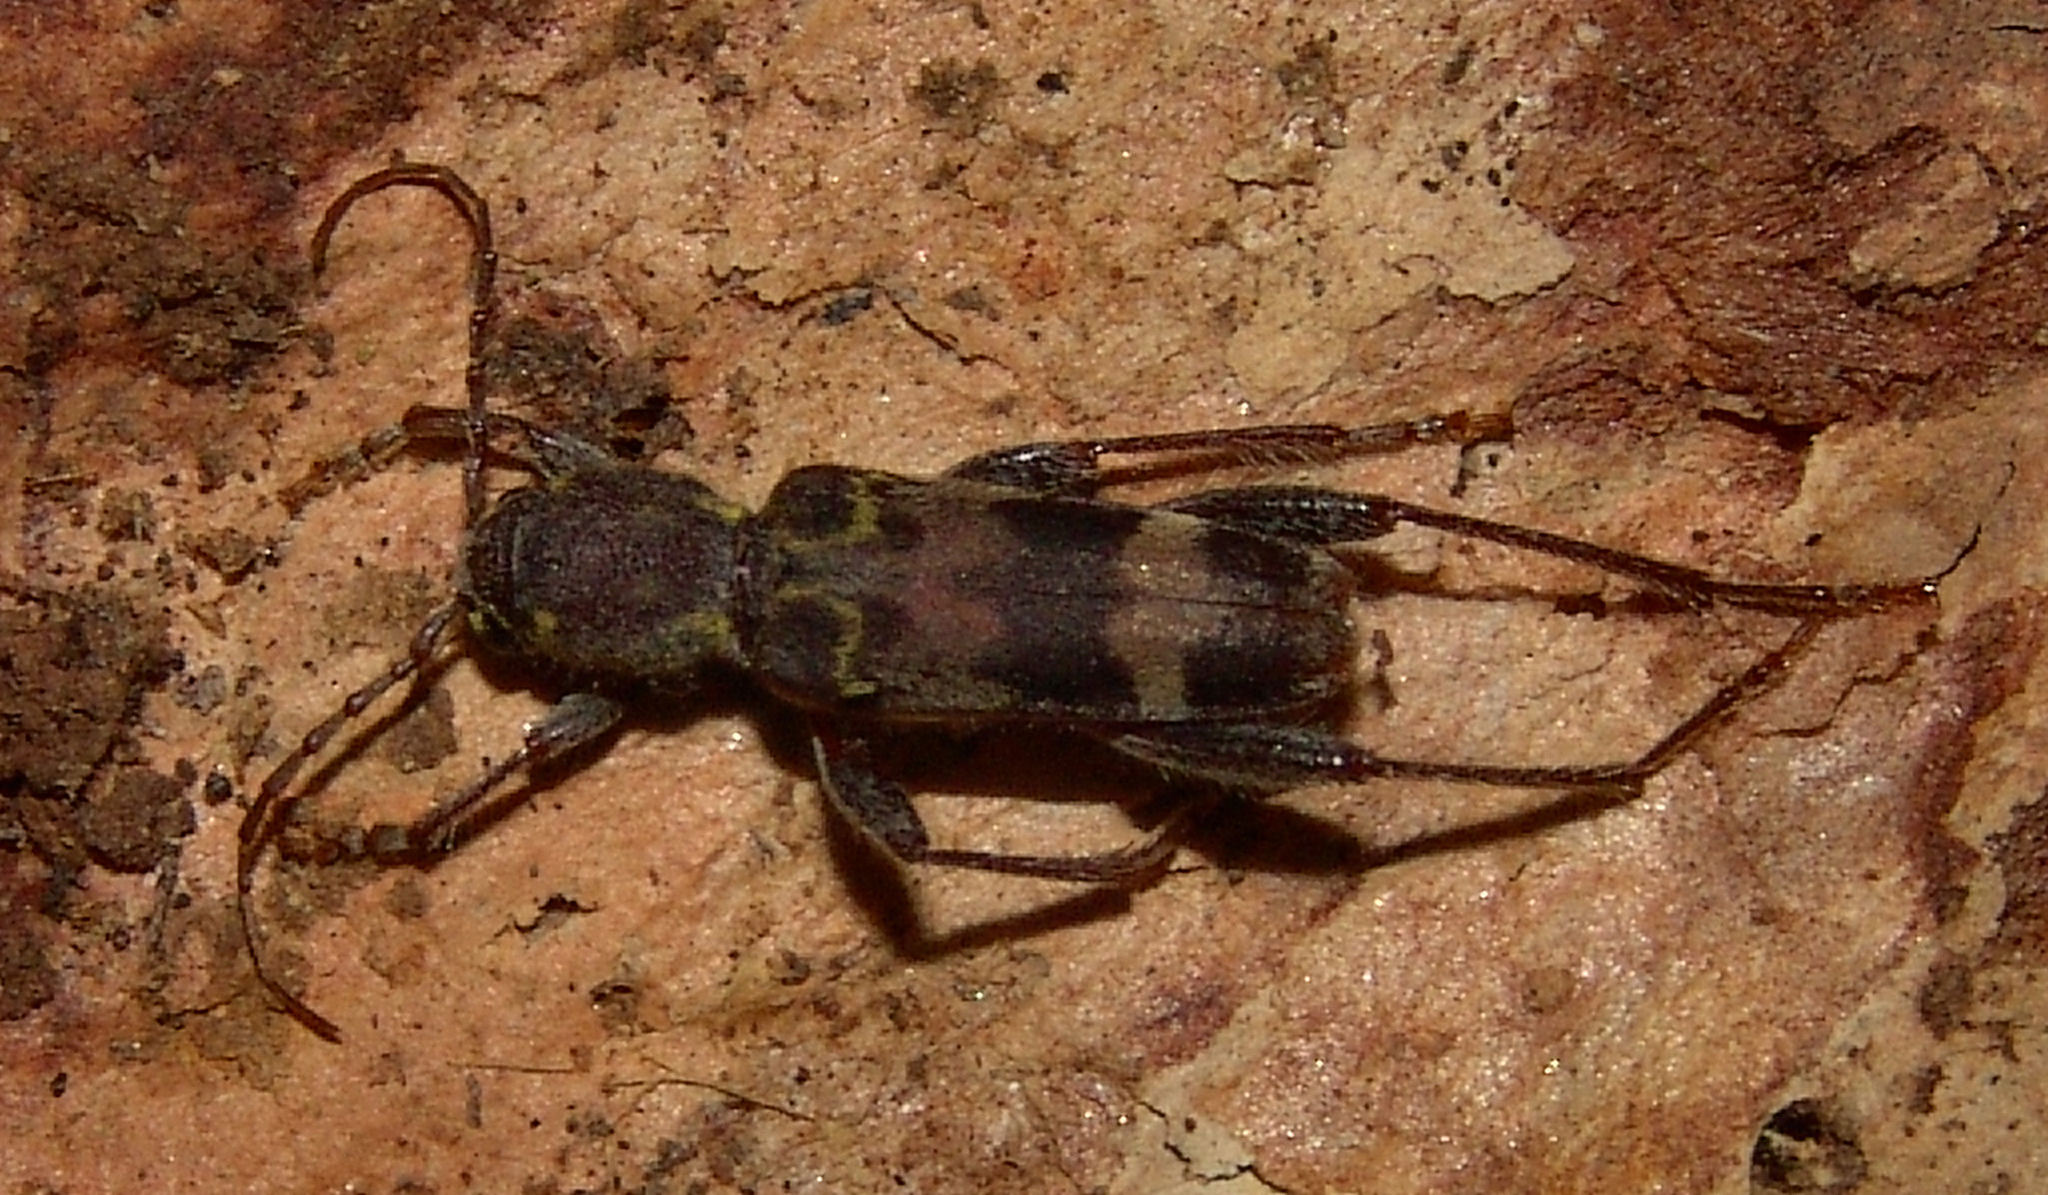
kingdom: Animalia
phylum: Arthropoda
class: Insecta
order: Coleoptera
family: Cerambycidae
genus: Xylotrechus
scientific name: Xylotrechus colonus
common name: Long-horned beetle
